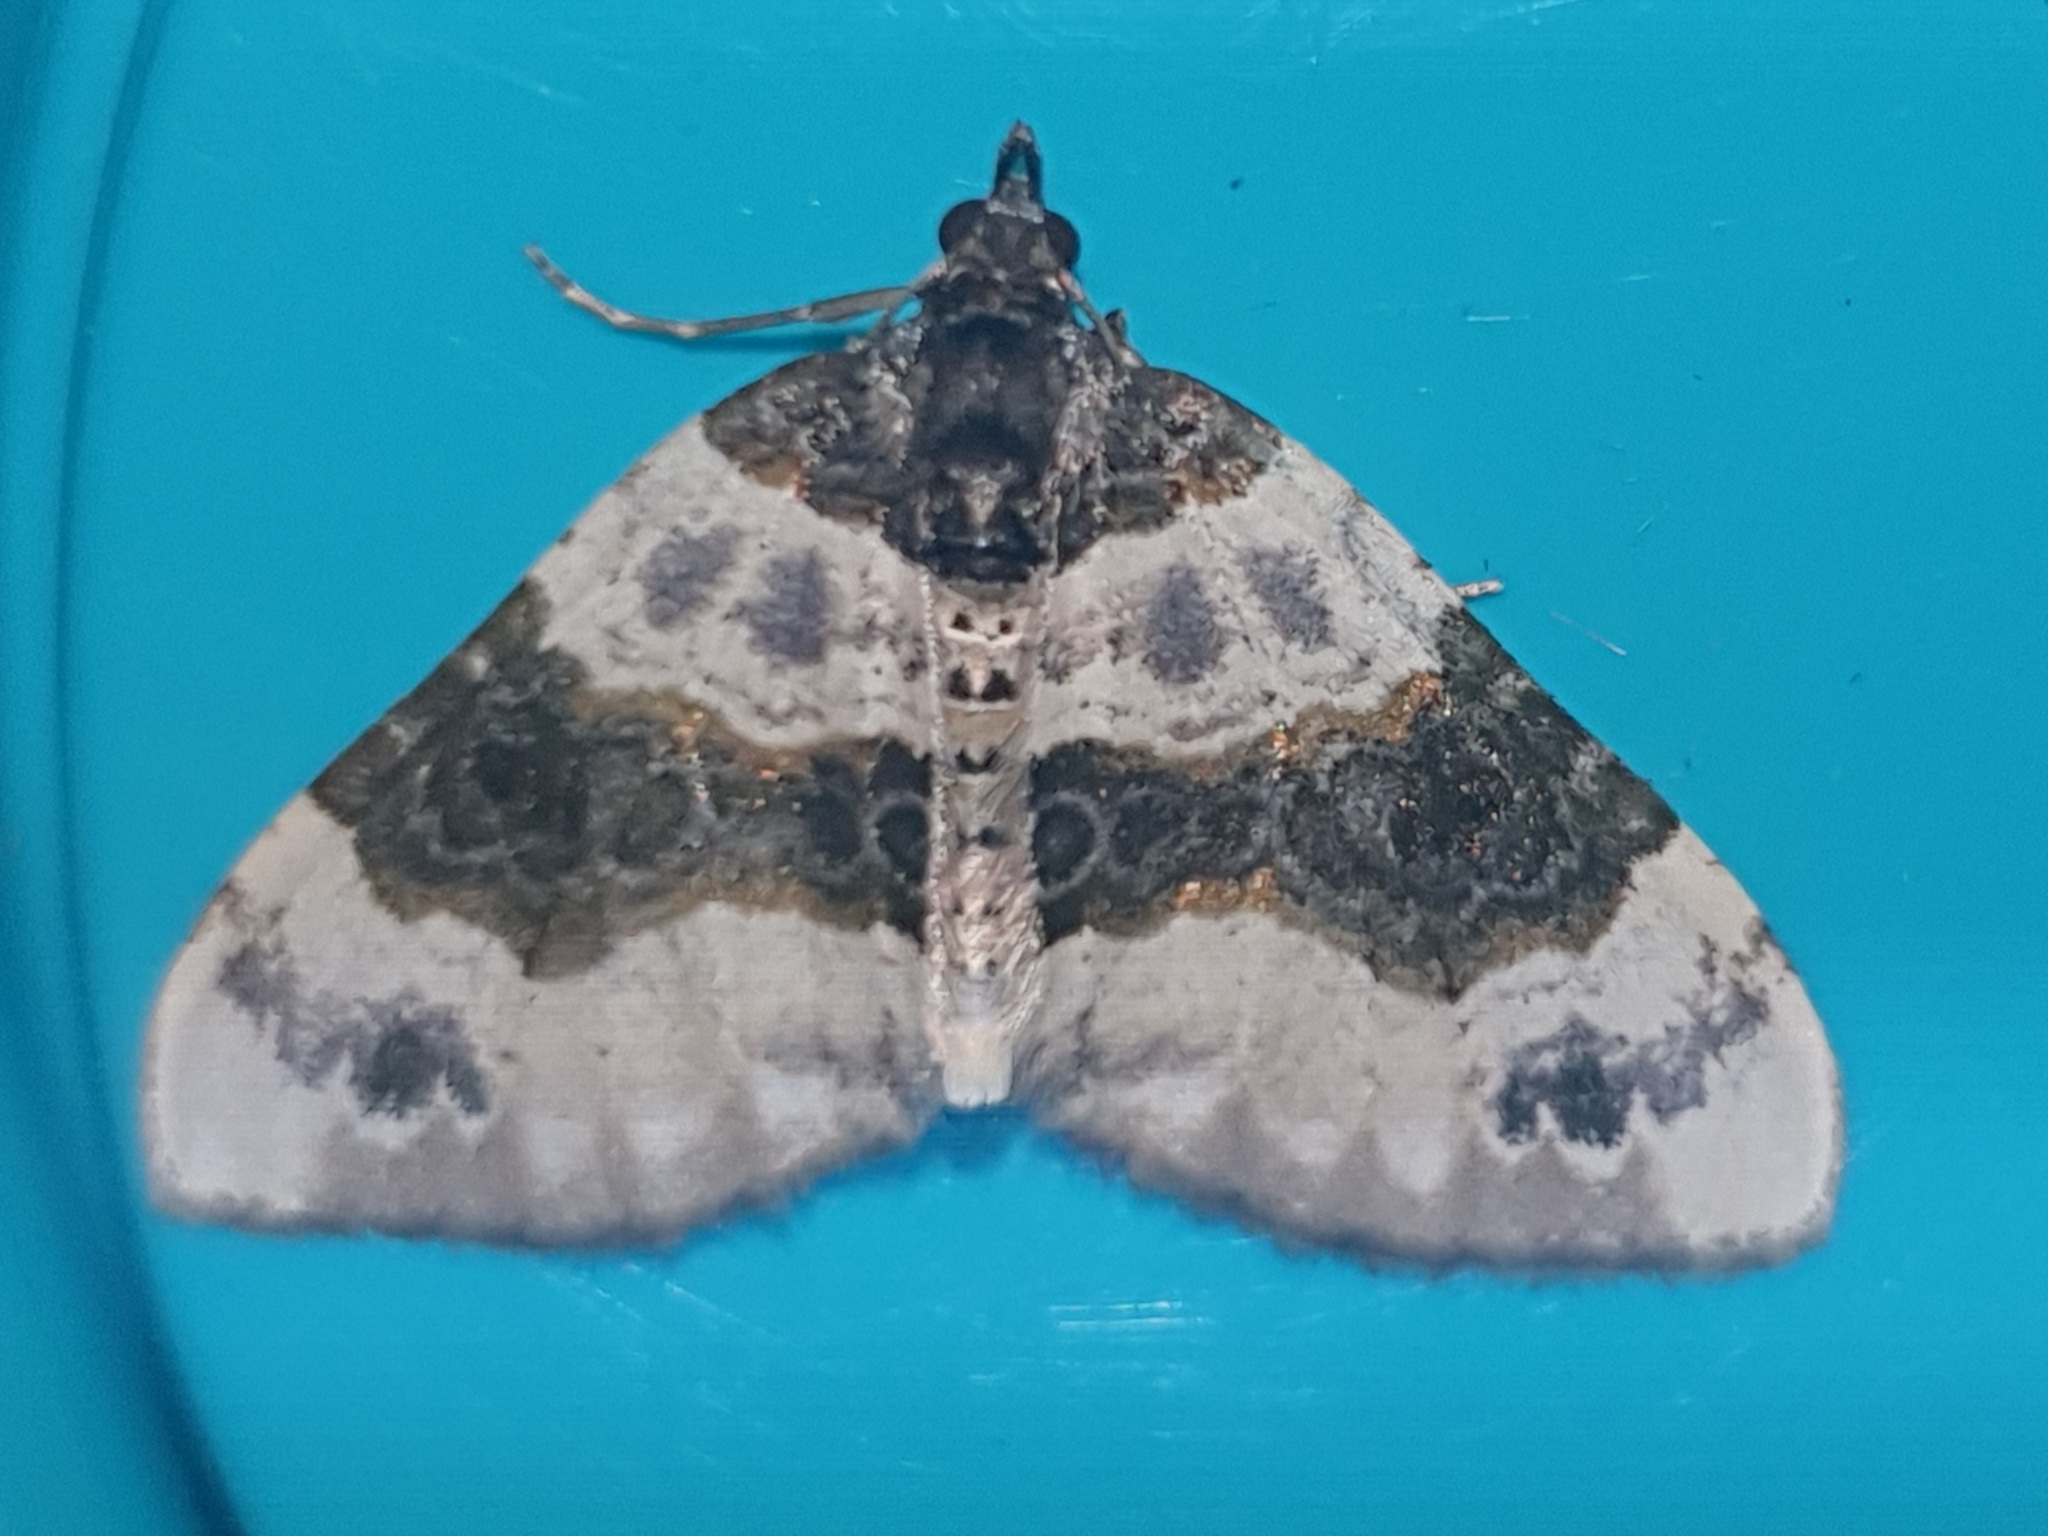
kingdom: Animalia
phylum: Arthropoda
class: Insecta
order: Lepidoptera
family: Geometridae
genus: Cosmorhoe
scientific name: Cosmorhoe ocellata
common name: Purple bar
